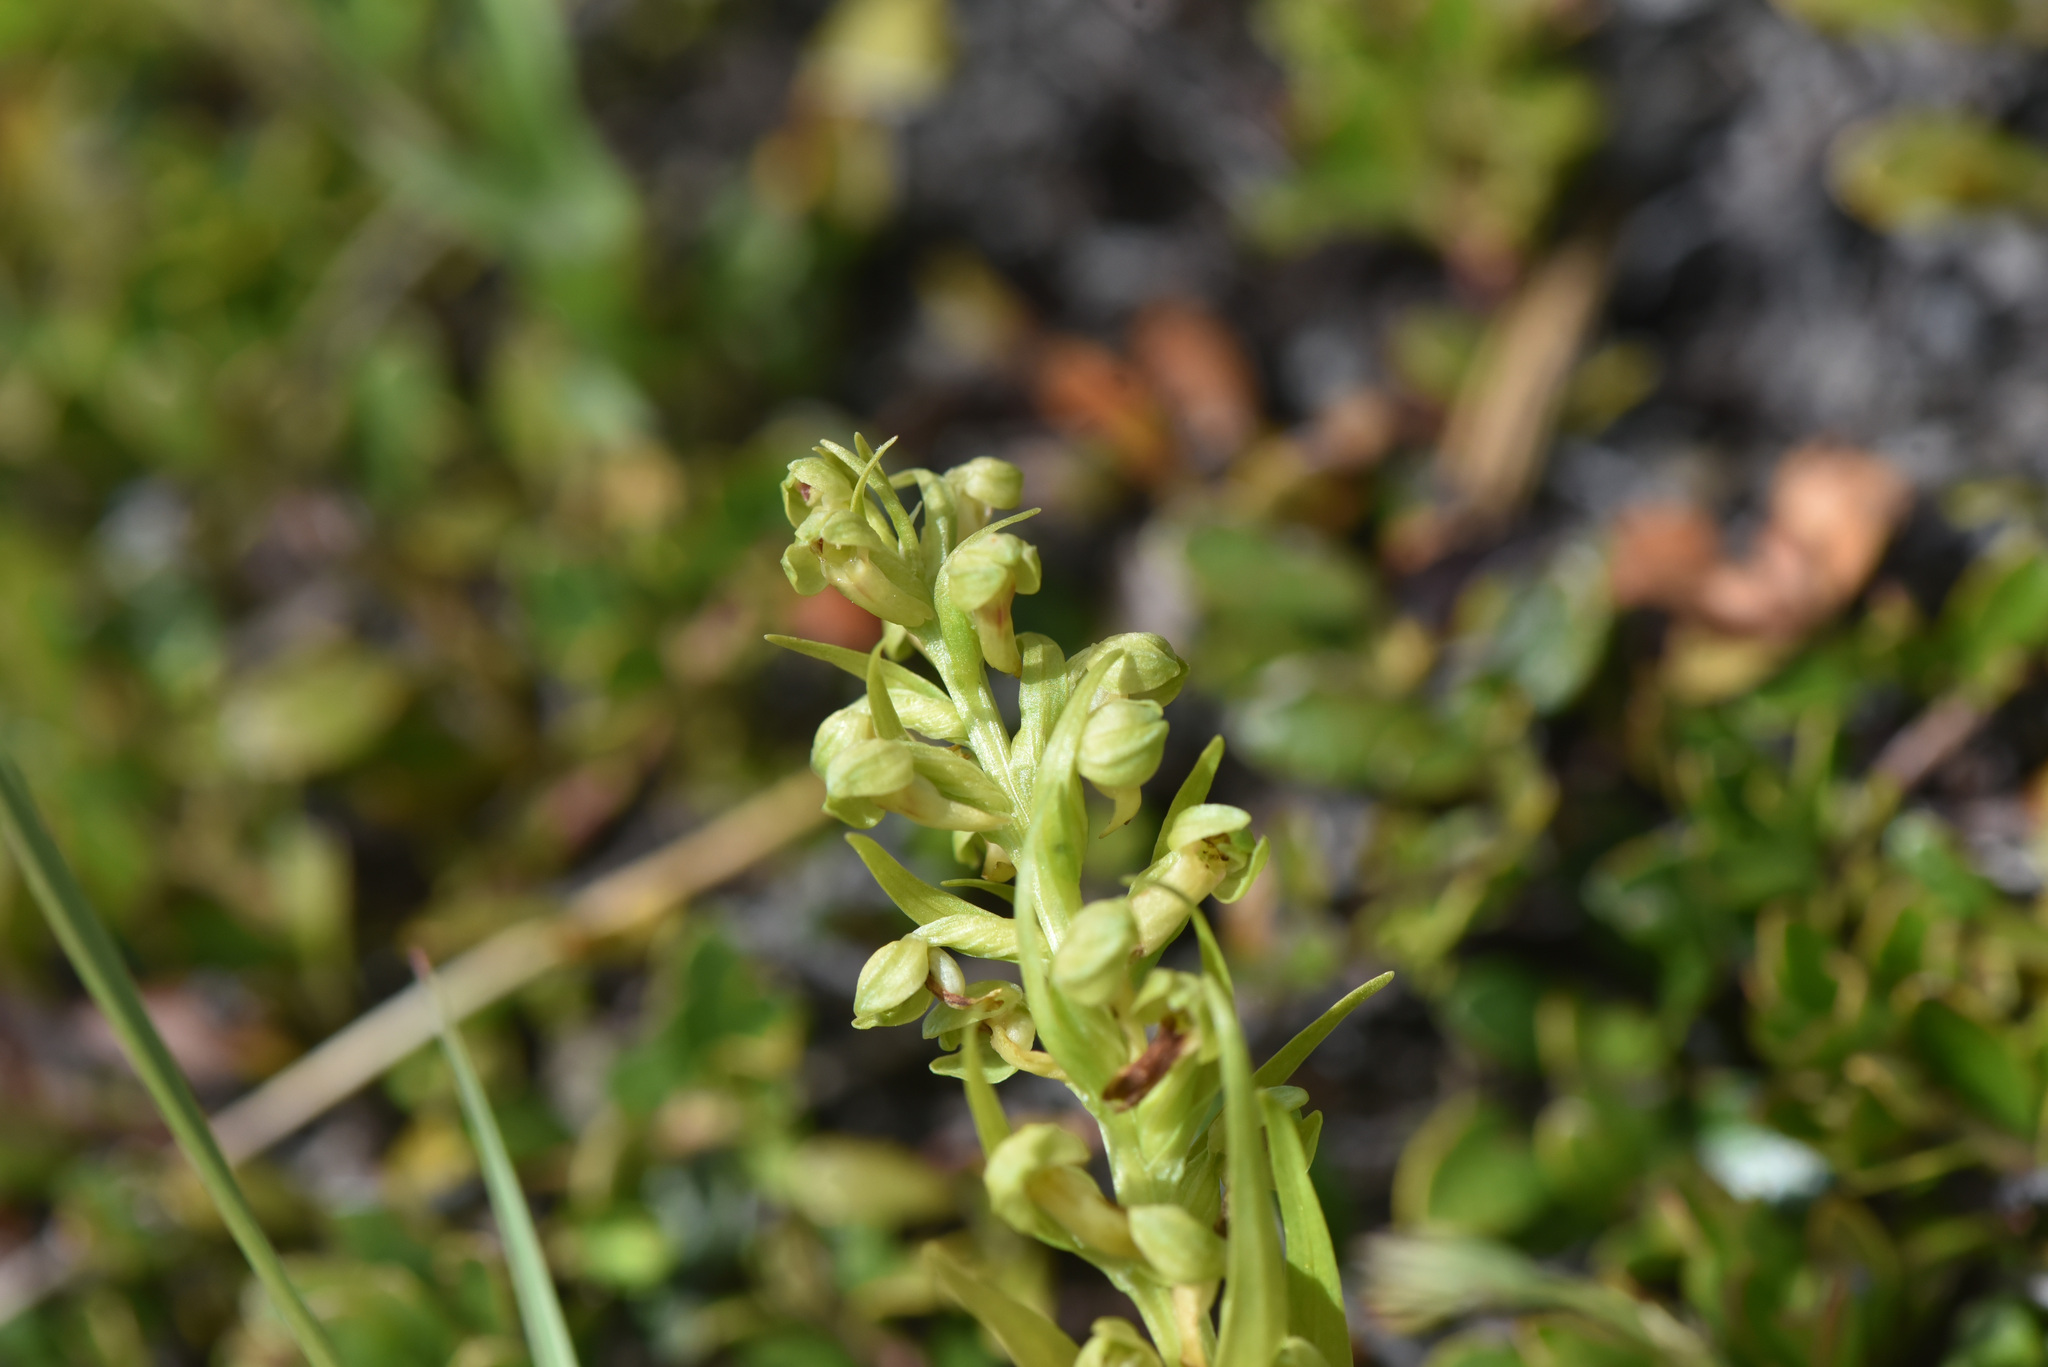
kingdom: Plantae
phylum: Tracheophyta
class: Liliopsida
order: Asparagales
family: Orchidaceae
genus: Dactylorhiza
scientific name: Dactylorhiza viridis
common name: Longbract frog orchid
